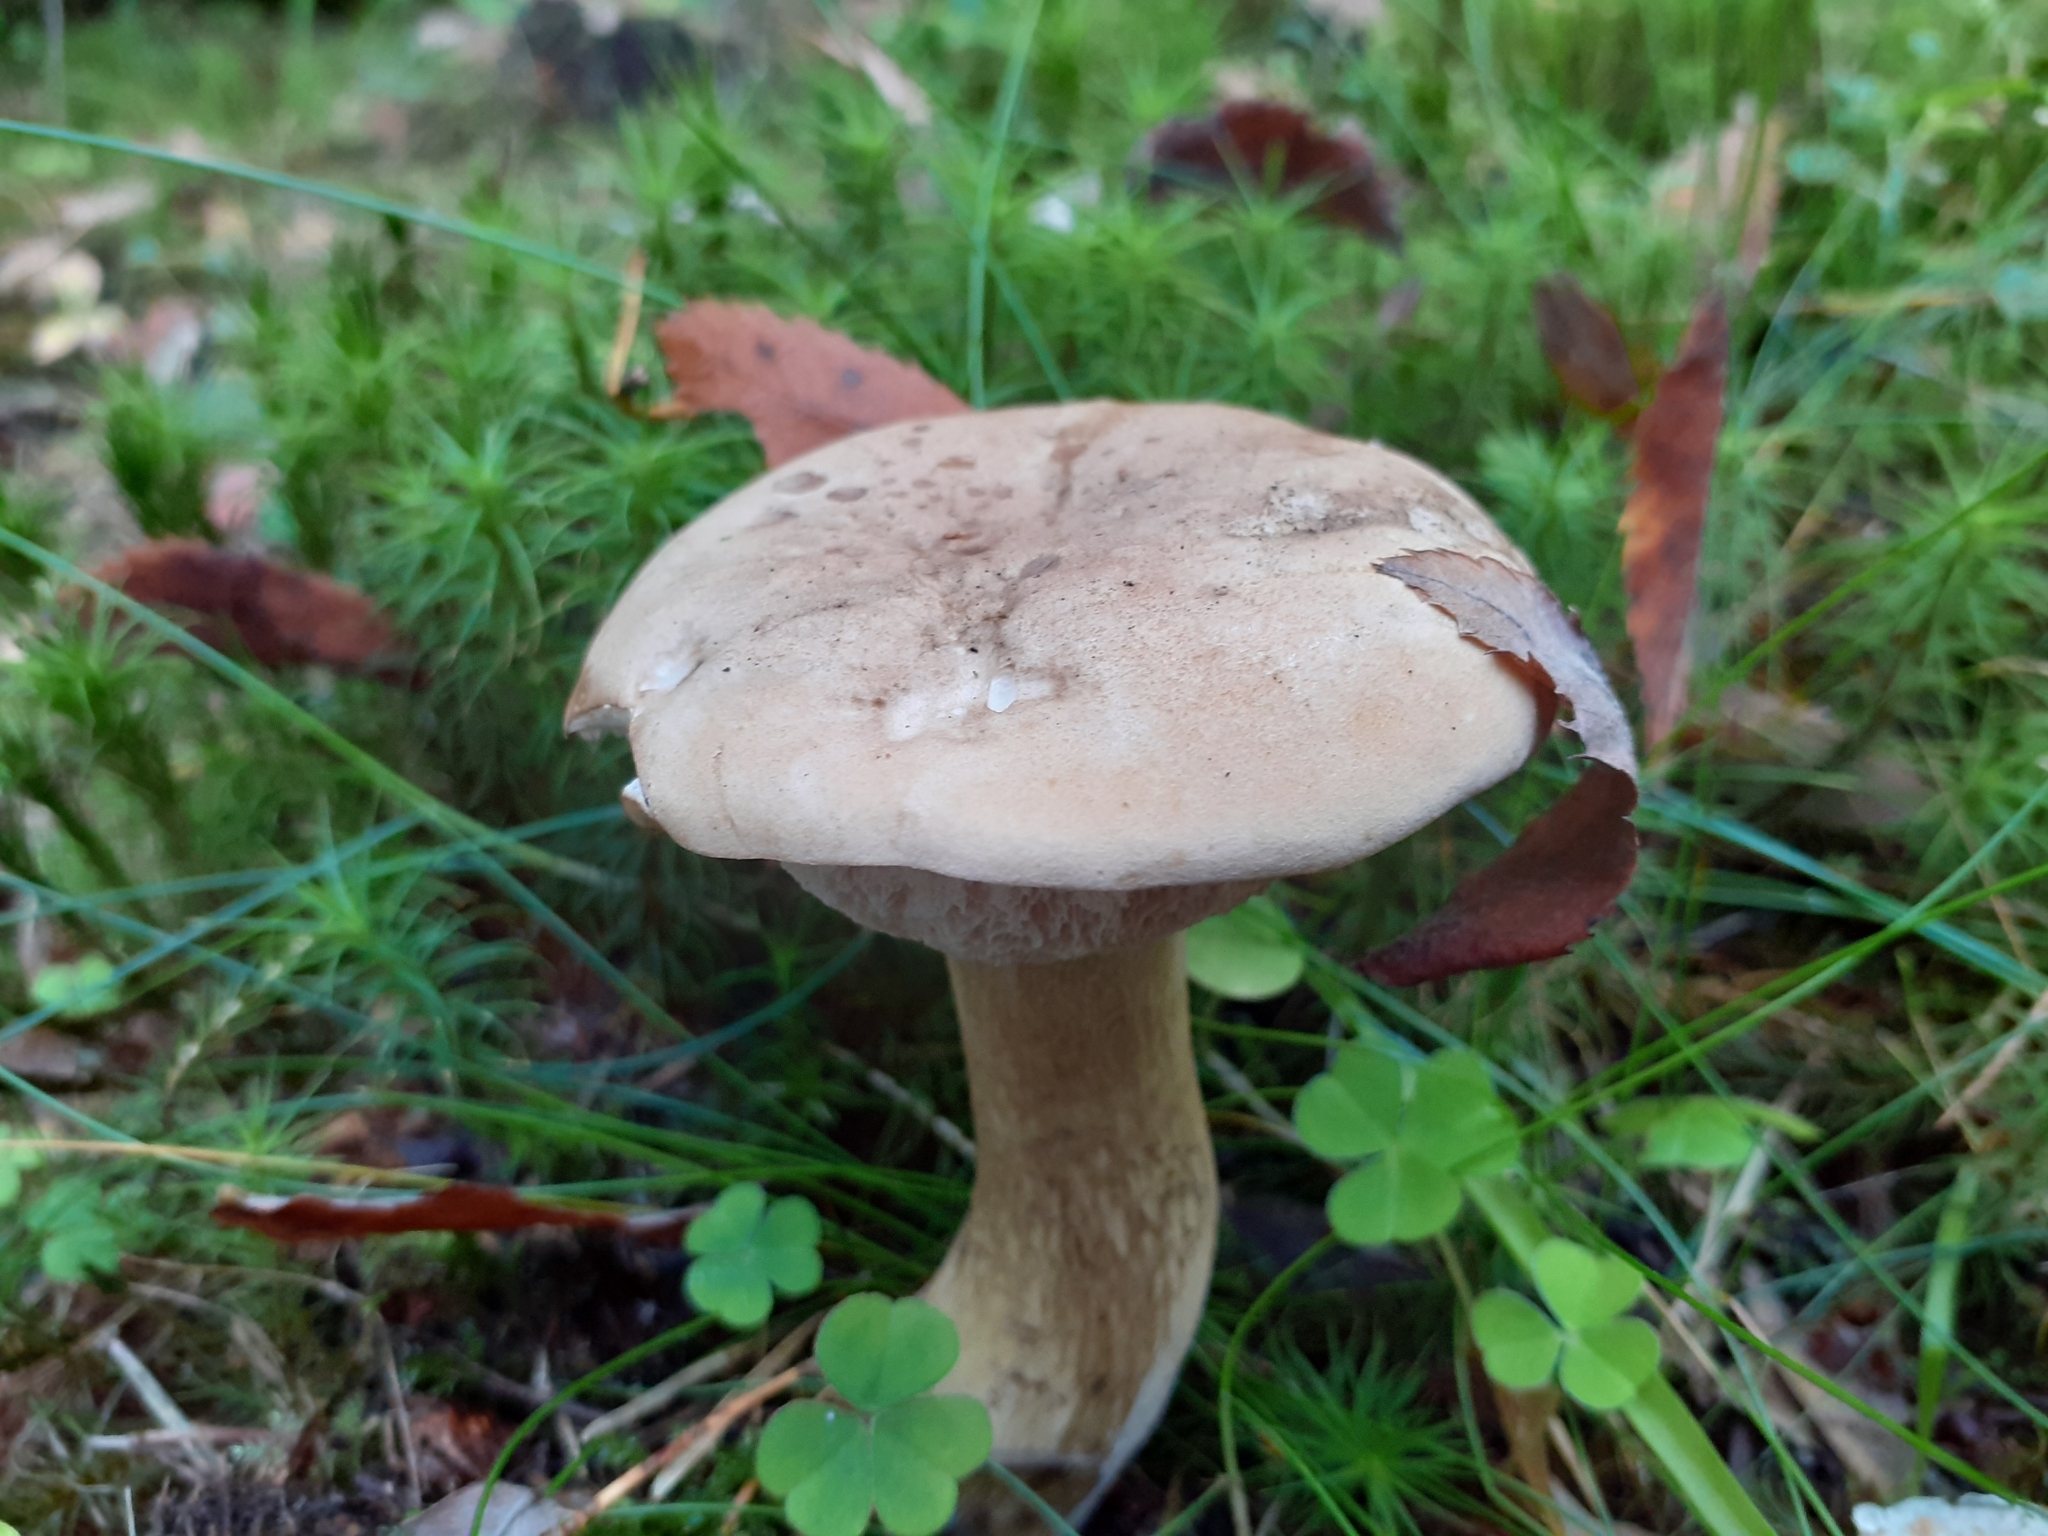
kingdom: Fungi
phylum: Basidiomycota
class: Agaricomycetes
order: Boletales
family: Boletaceae
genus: Tylopilus
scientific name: Tylopilus felleus
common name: Bitter bolete
